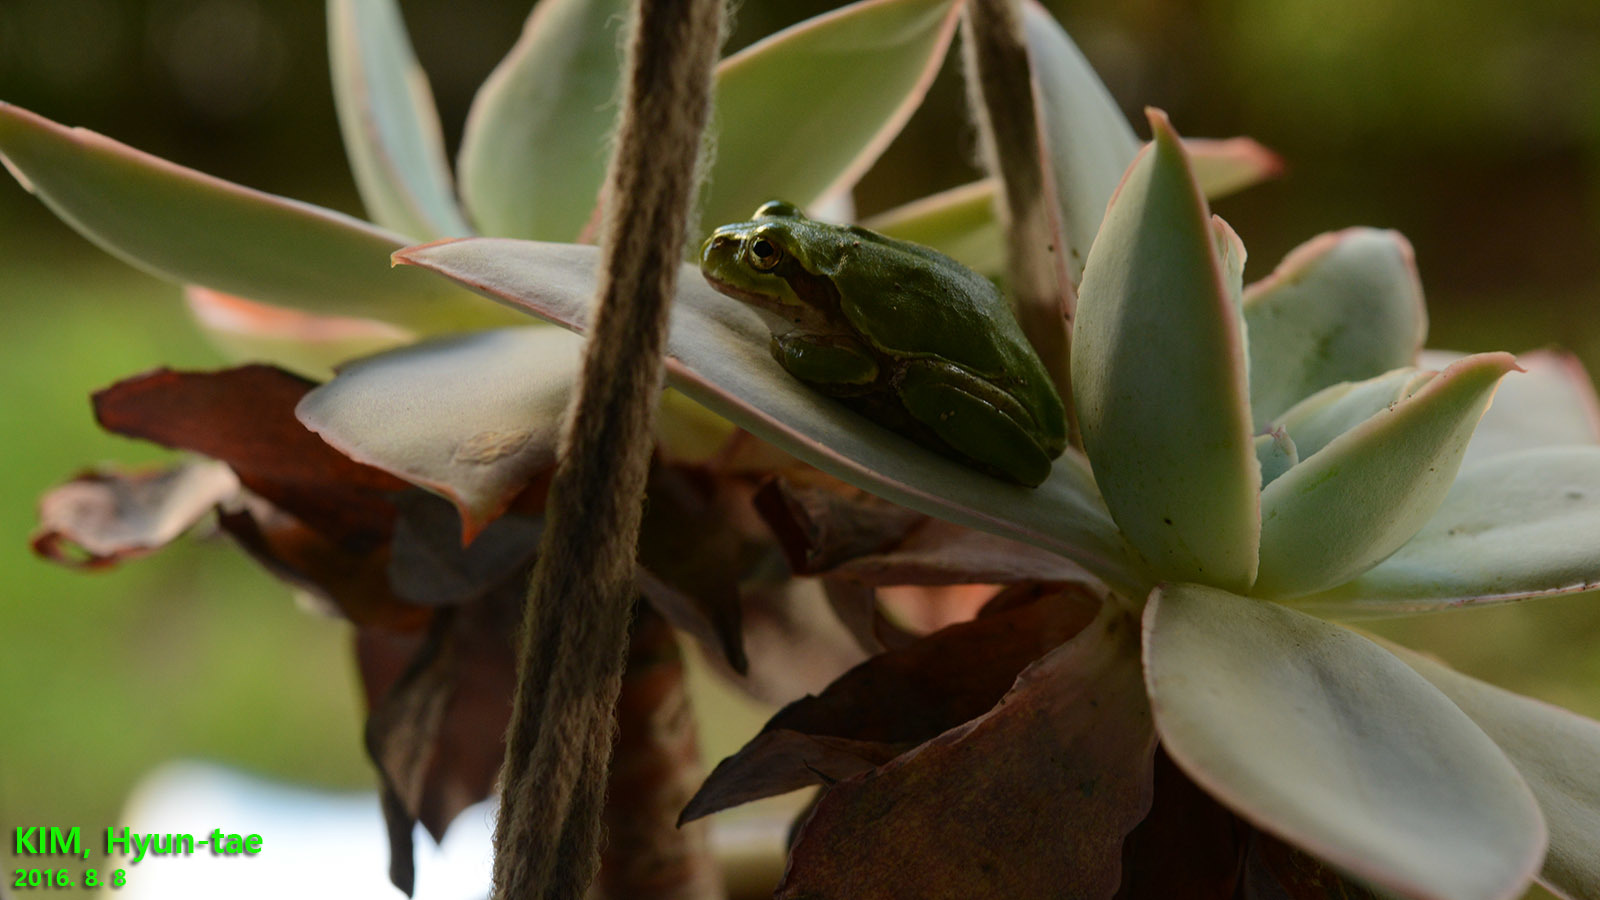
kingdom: Animalia
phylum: Chordata
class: Amphibia
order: Anura
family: Hylidae
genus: Dryophytes
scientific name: Dryophytes japonicus
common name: Japanese treefrog
